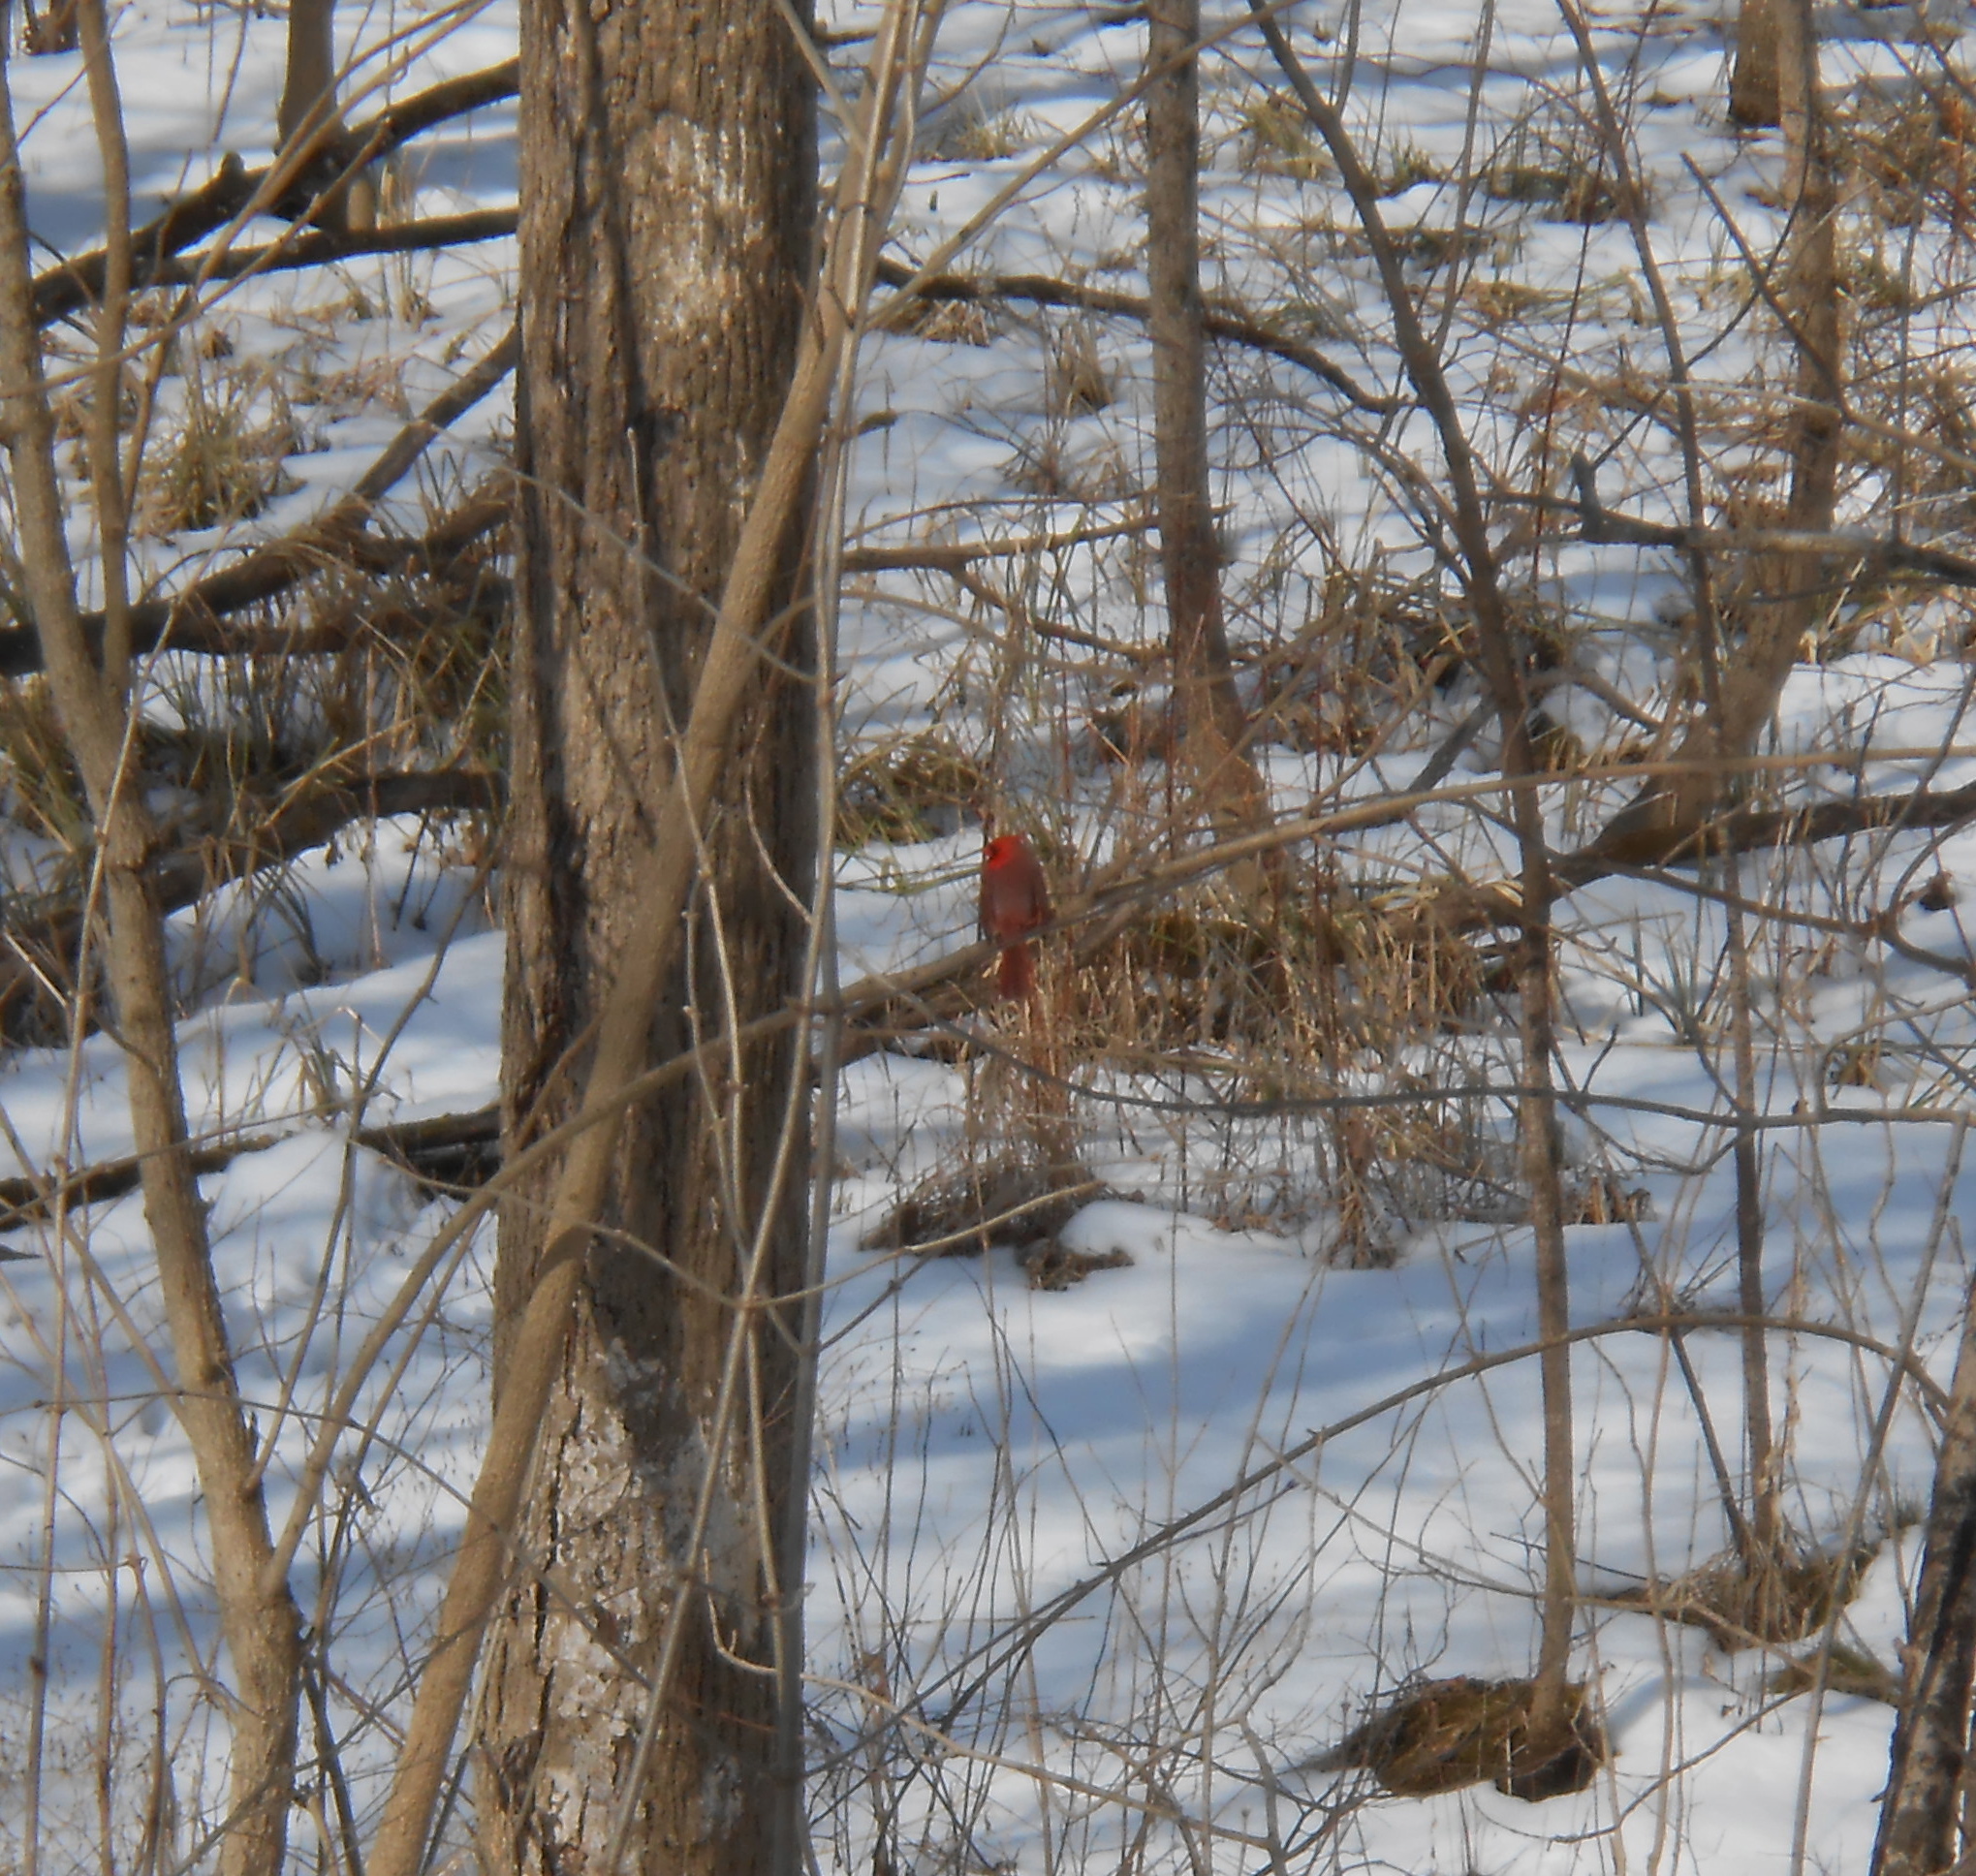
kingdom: Animalia
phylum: Chordata
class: Aves
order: Passeriformes
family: Cardinalidae
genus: Cardinalis
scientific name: Cardinalis cardinalis
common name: Northern cardinal
